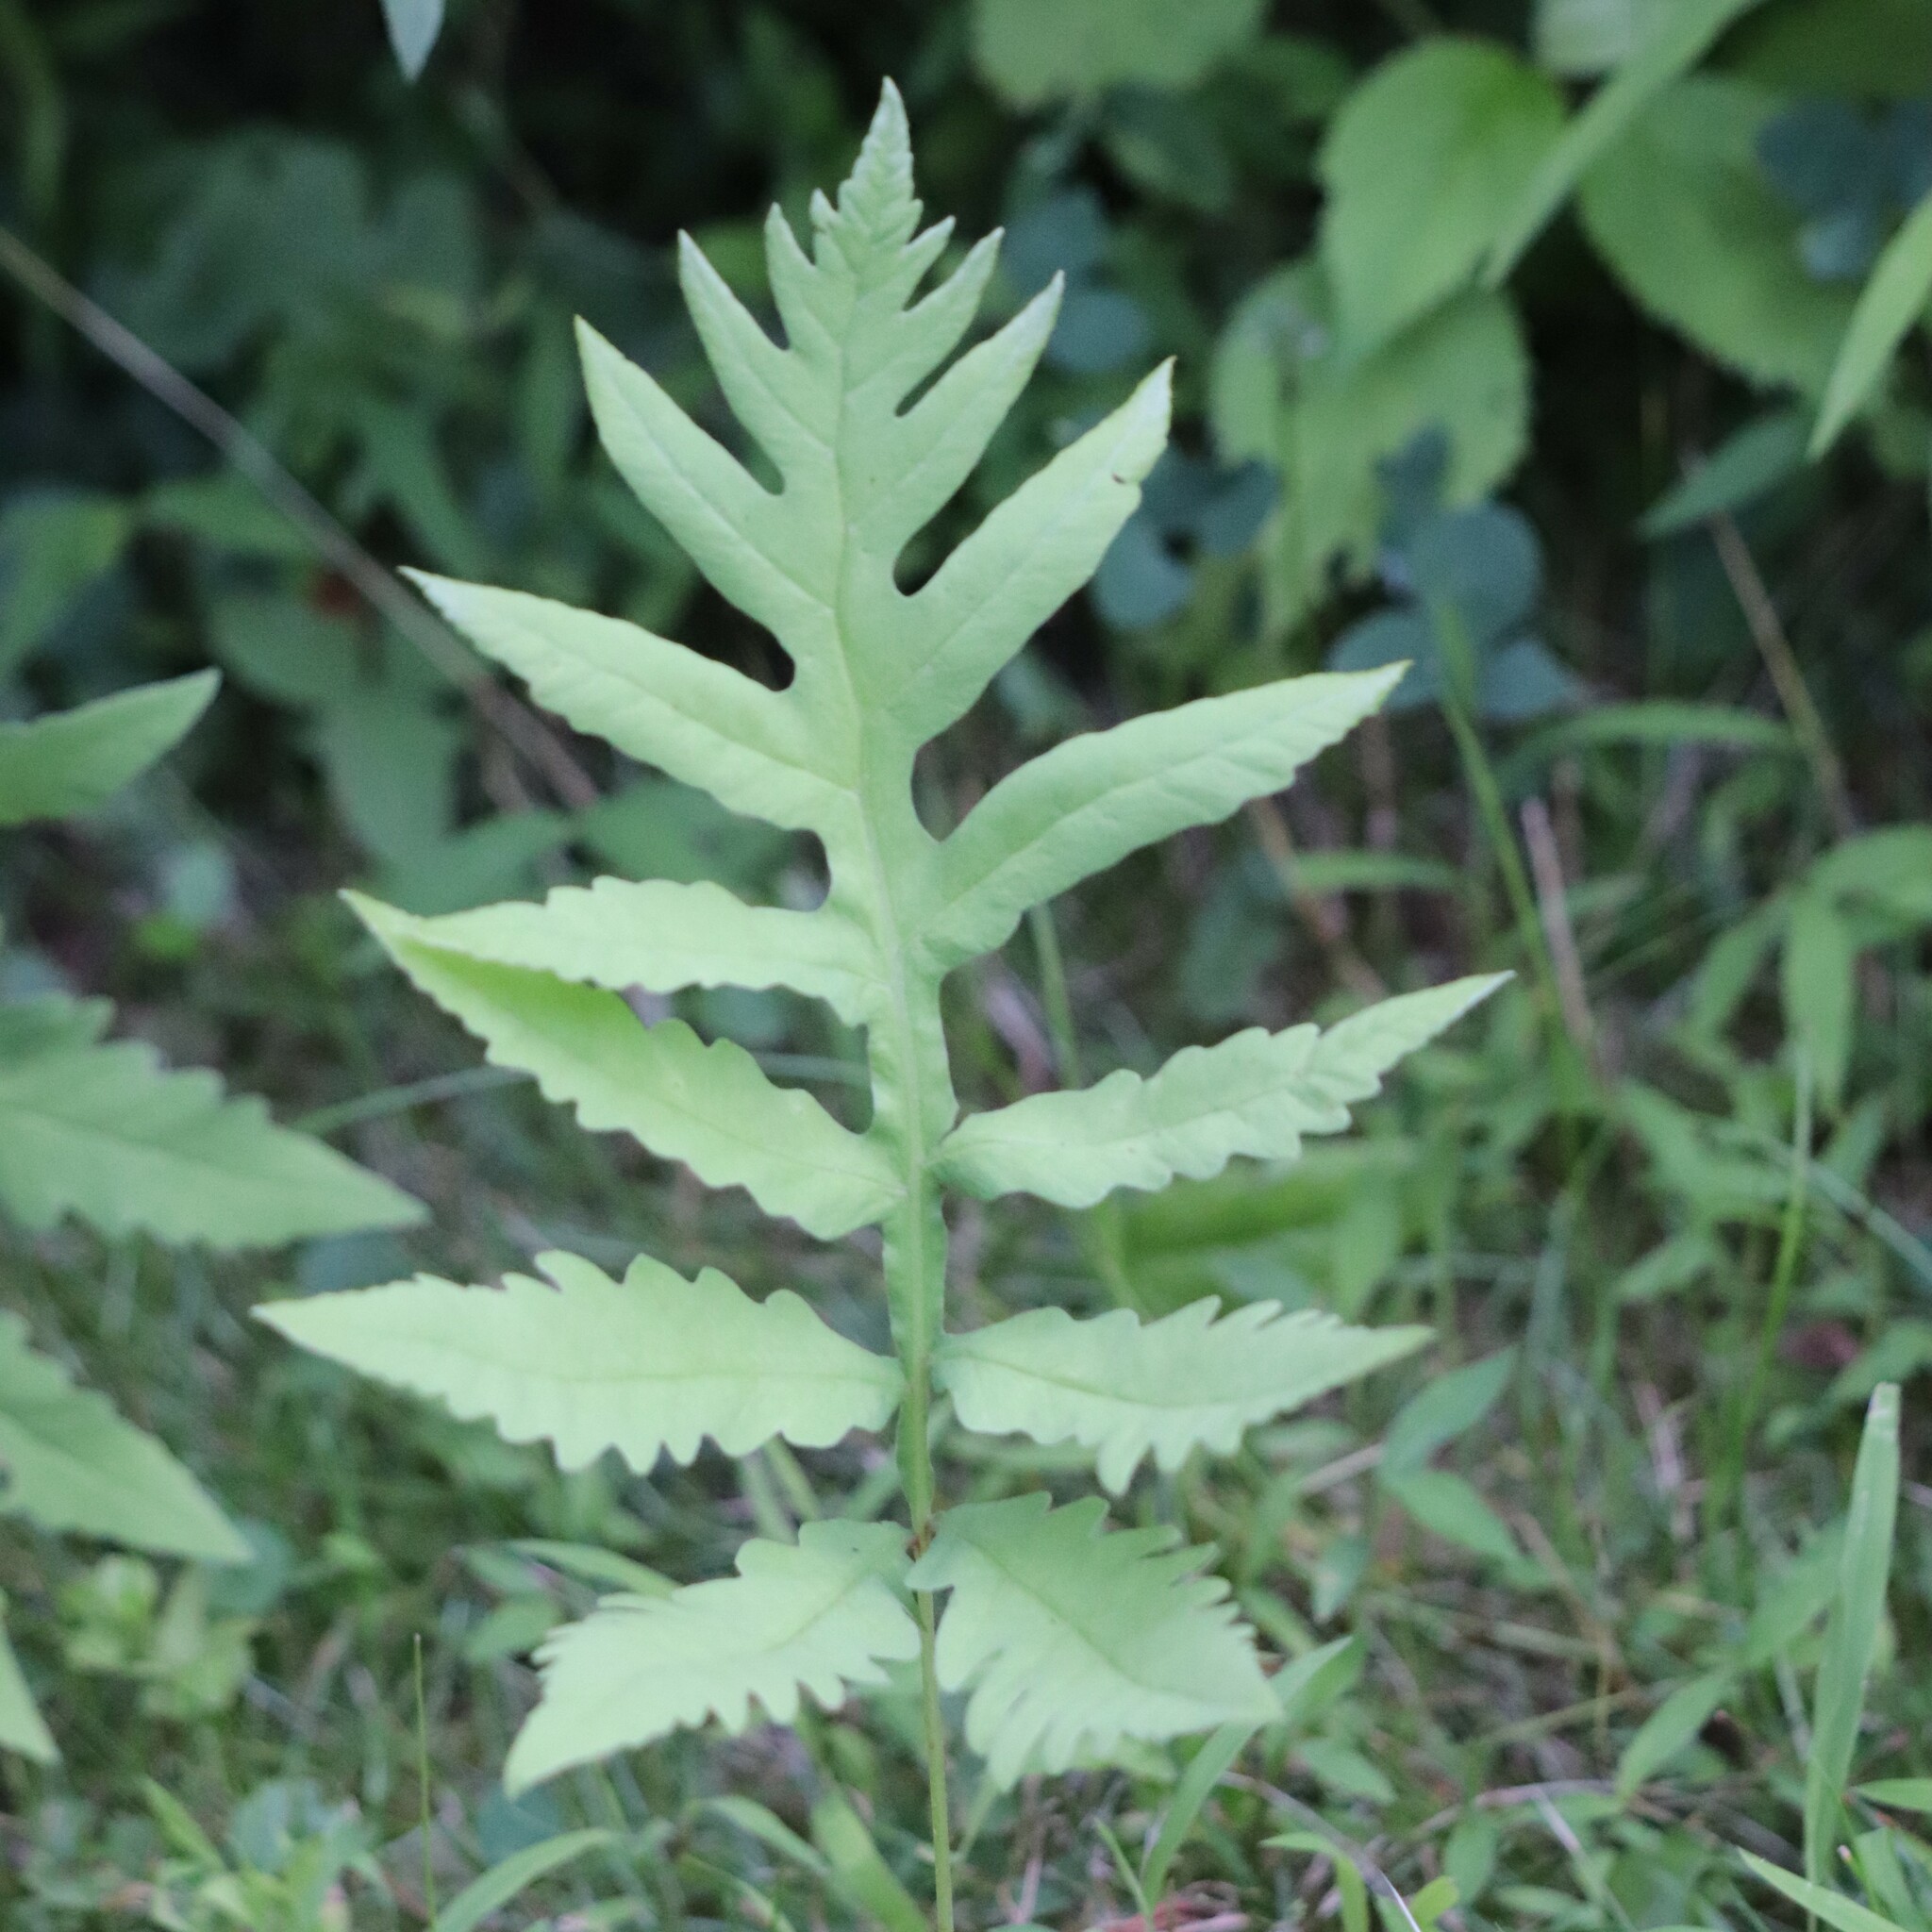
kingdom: Plantae
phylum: Tracheophyta
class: Polypodiopsida
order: Polypodiales
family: Onocleaceae
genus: Onoclea
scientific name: Onoclea sensibilis
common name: Sensitive fern
